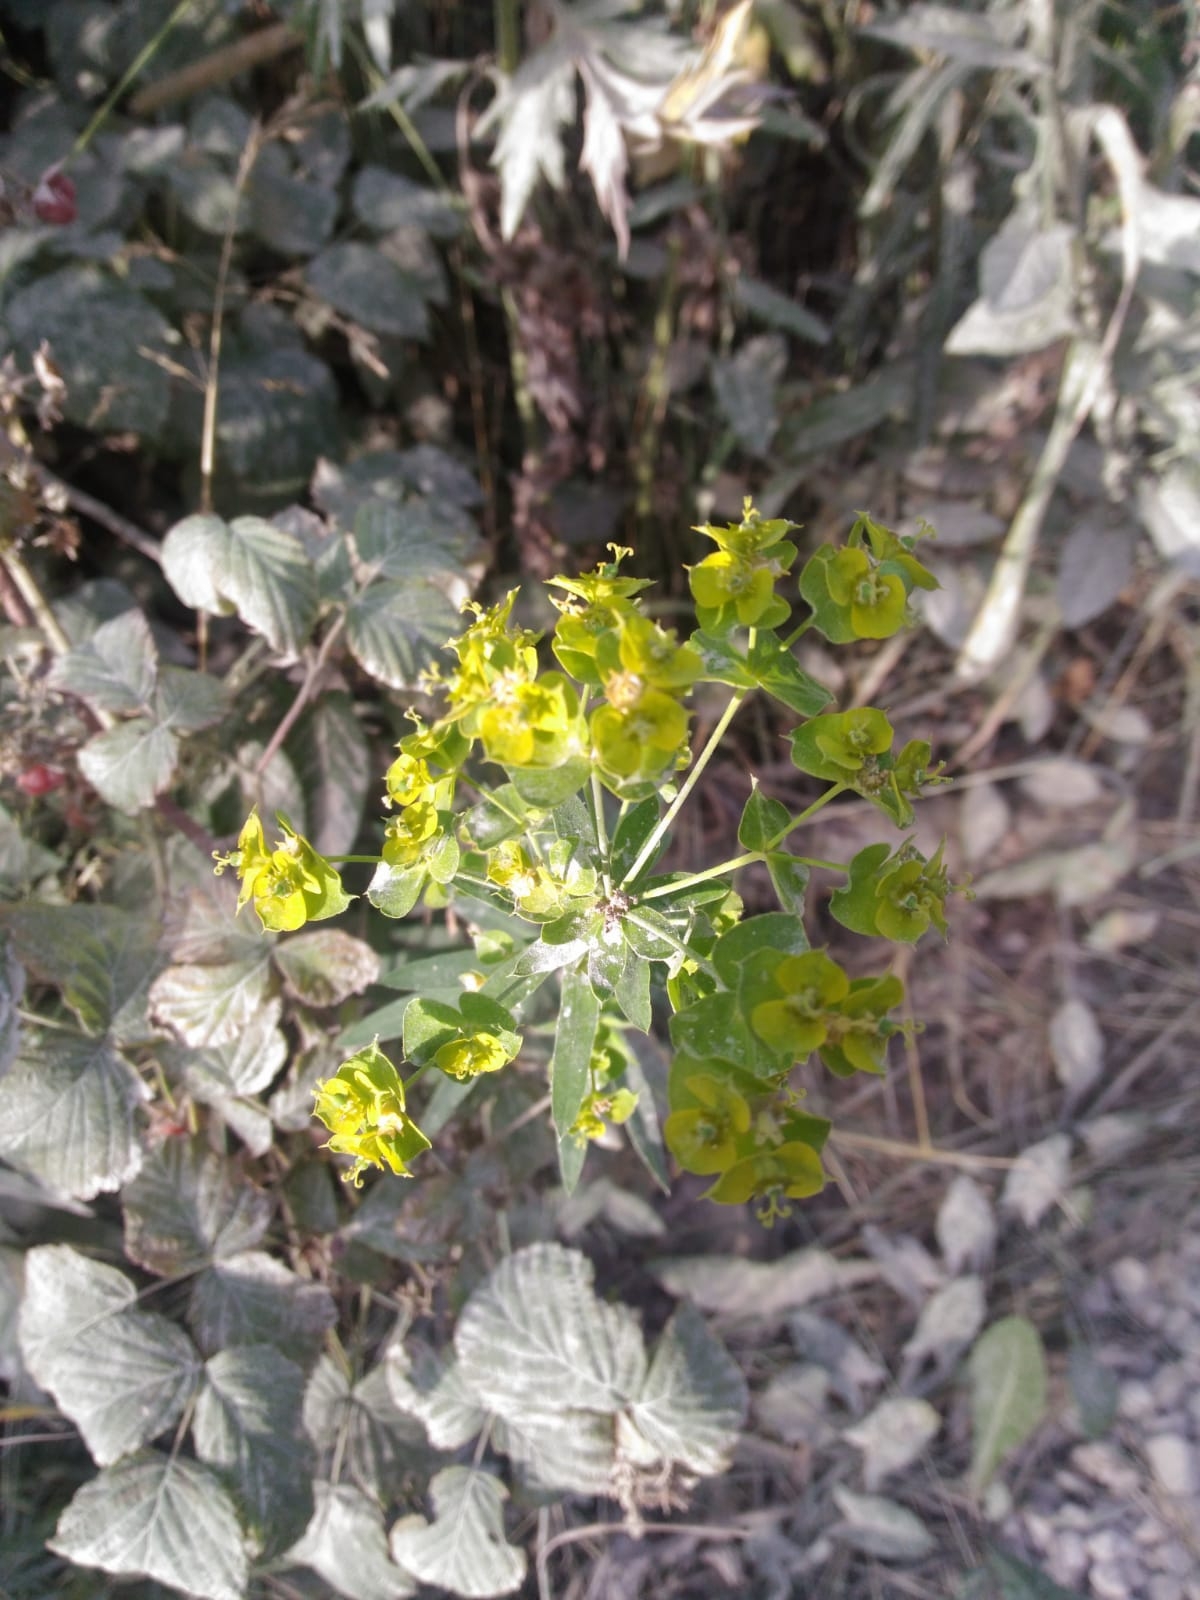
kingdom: Plantae
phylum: Tracheophyta
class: Magnoliopsida
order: Malpighiales
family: Euphorbiaceae
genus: Euphorbia
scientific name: Euphorbia virgata
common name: Leafy spurge
